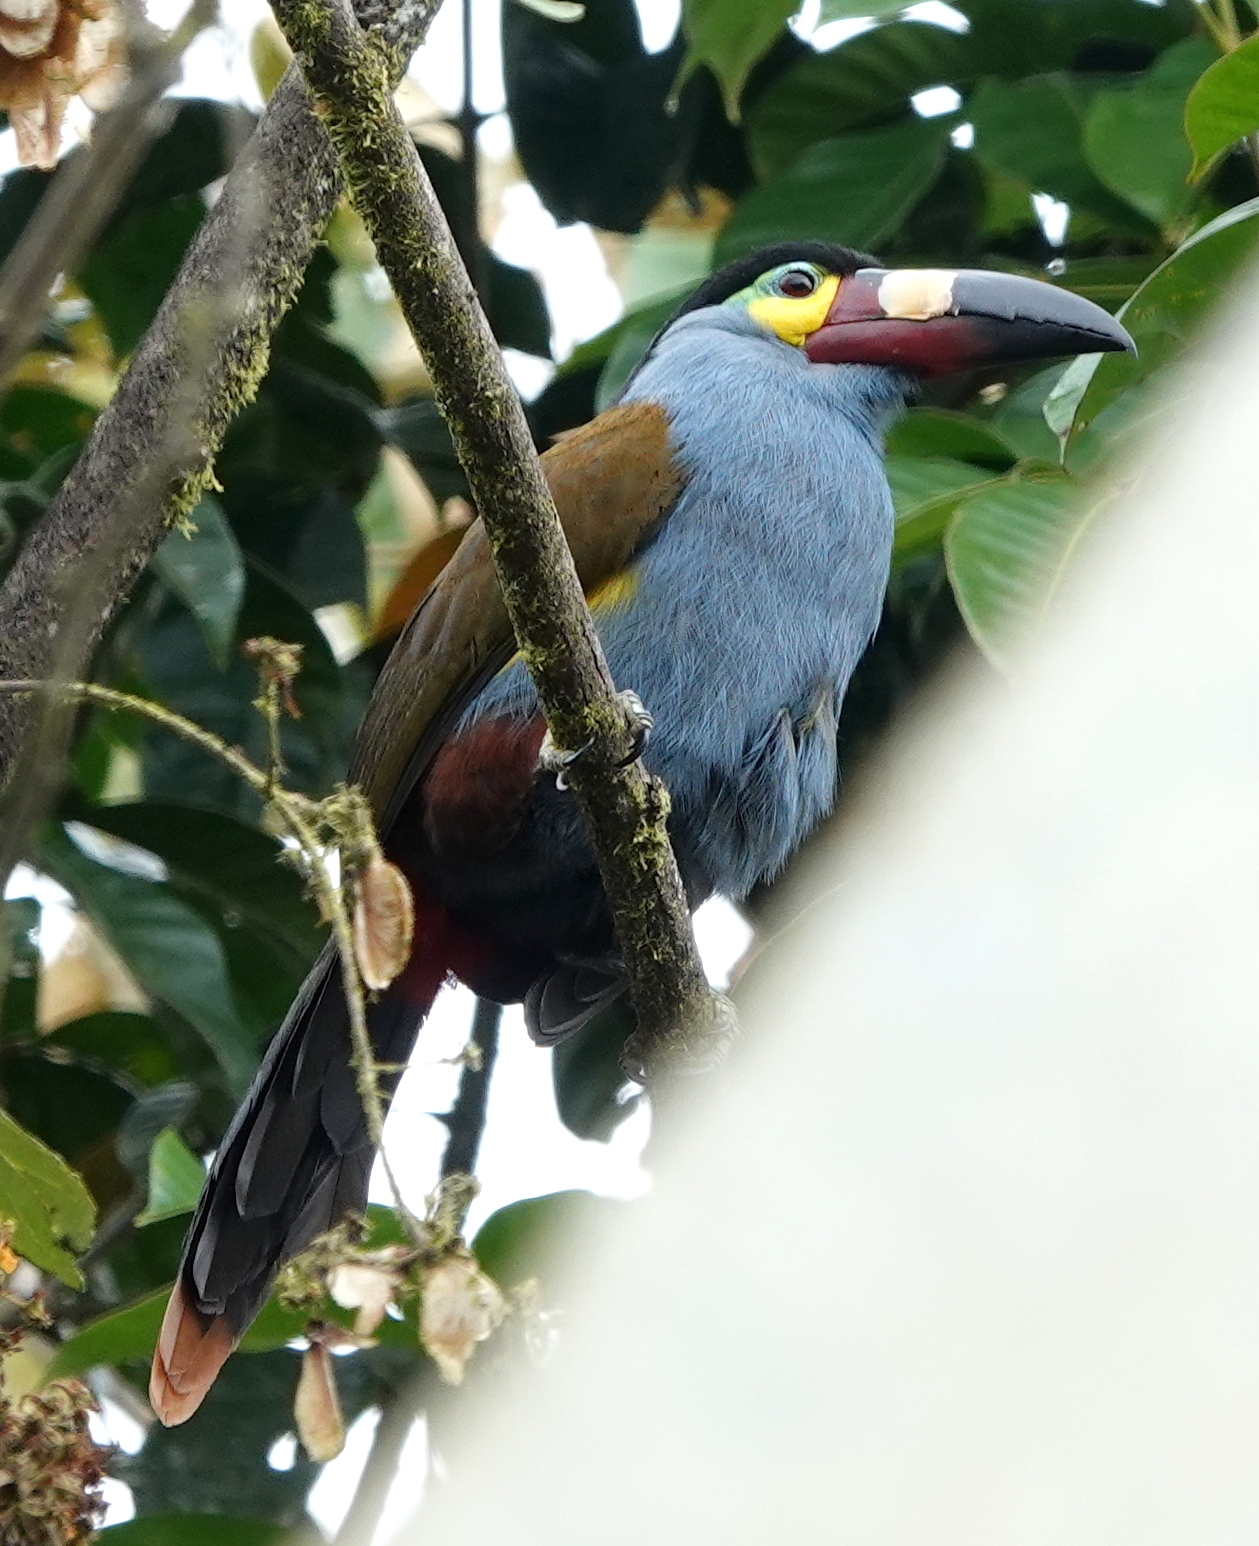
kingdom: Animalia
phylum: Chordata
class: Aves
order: Piciformes
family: Ramphastidae
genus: Andigena
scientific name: Andigena laminirostris
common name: Plate-billed mountain toucan
